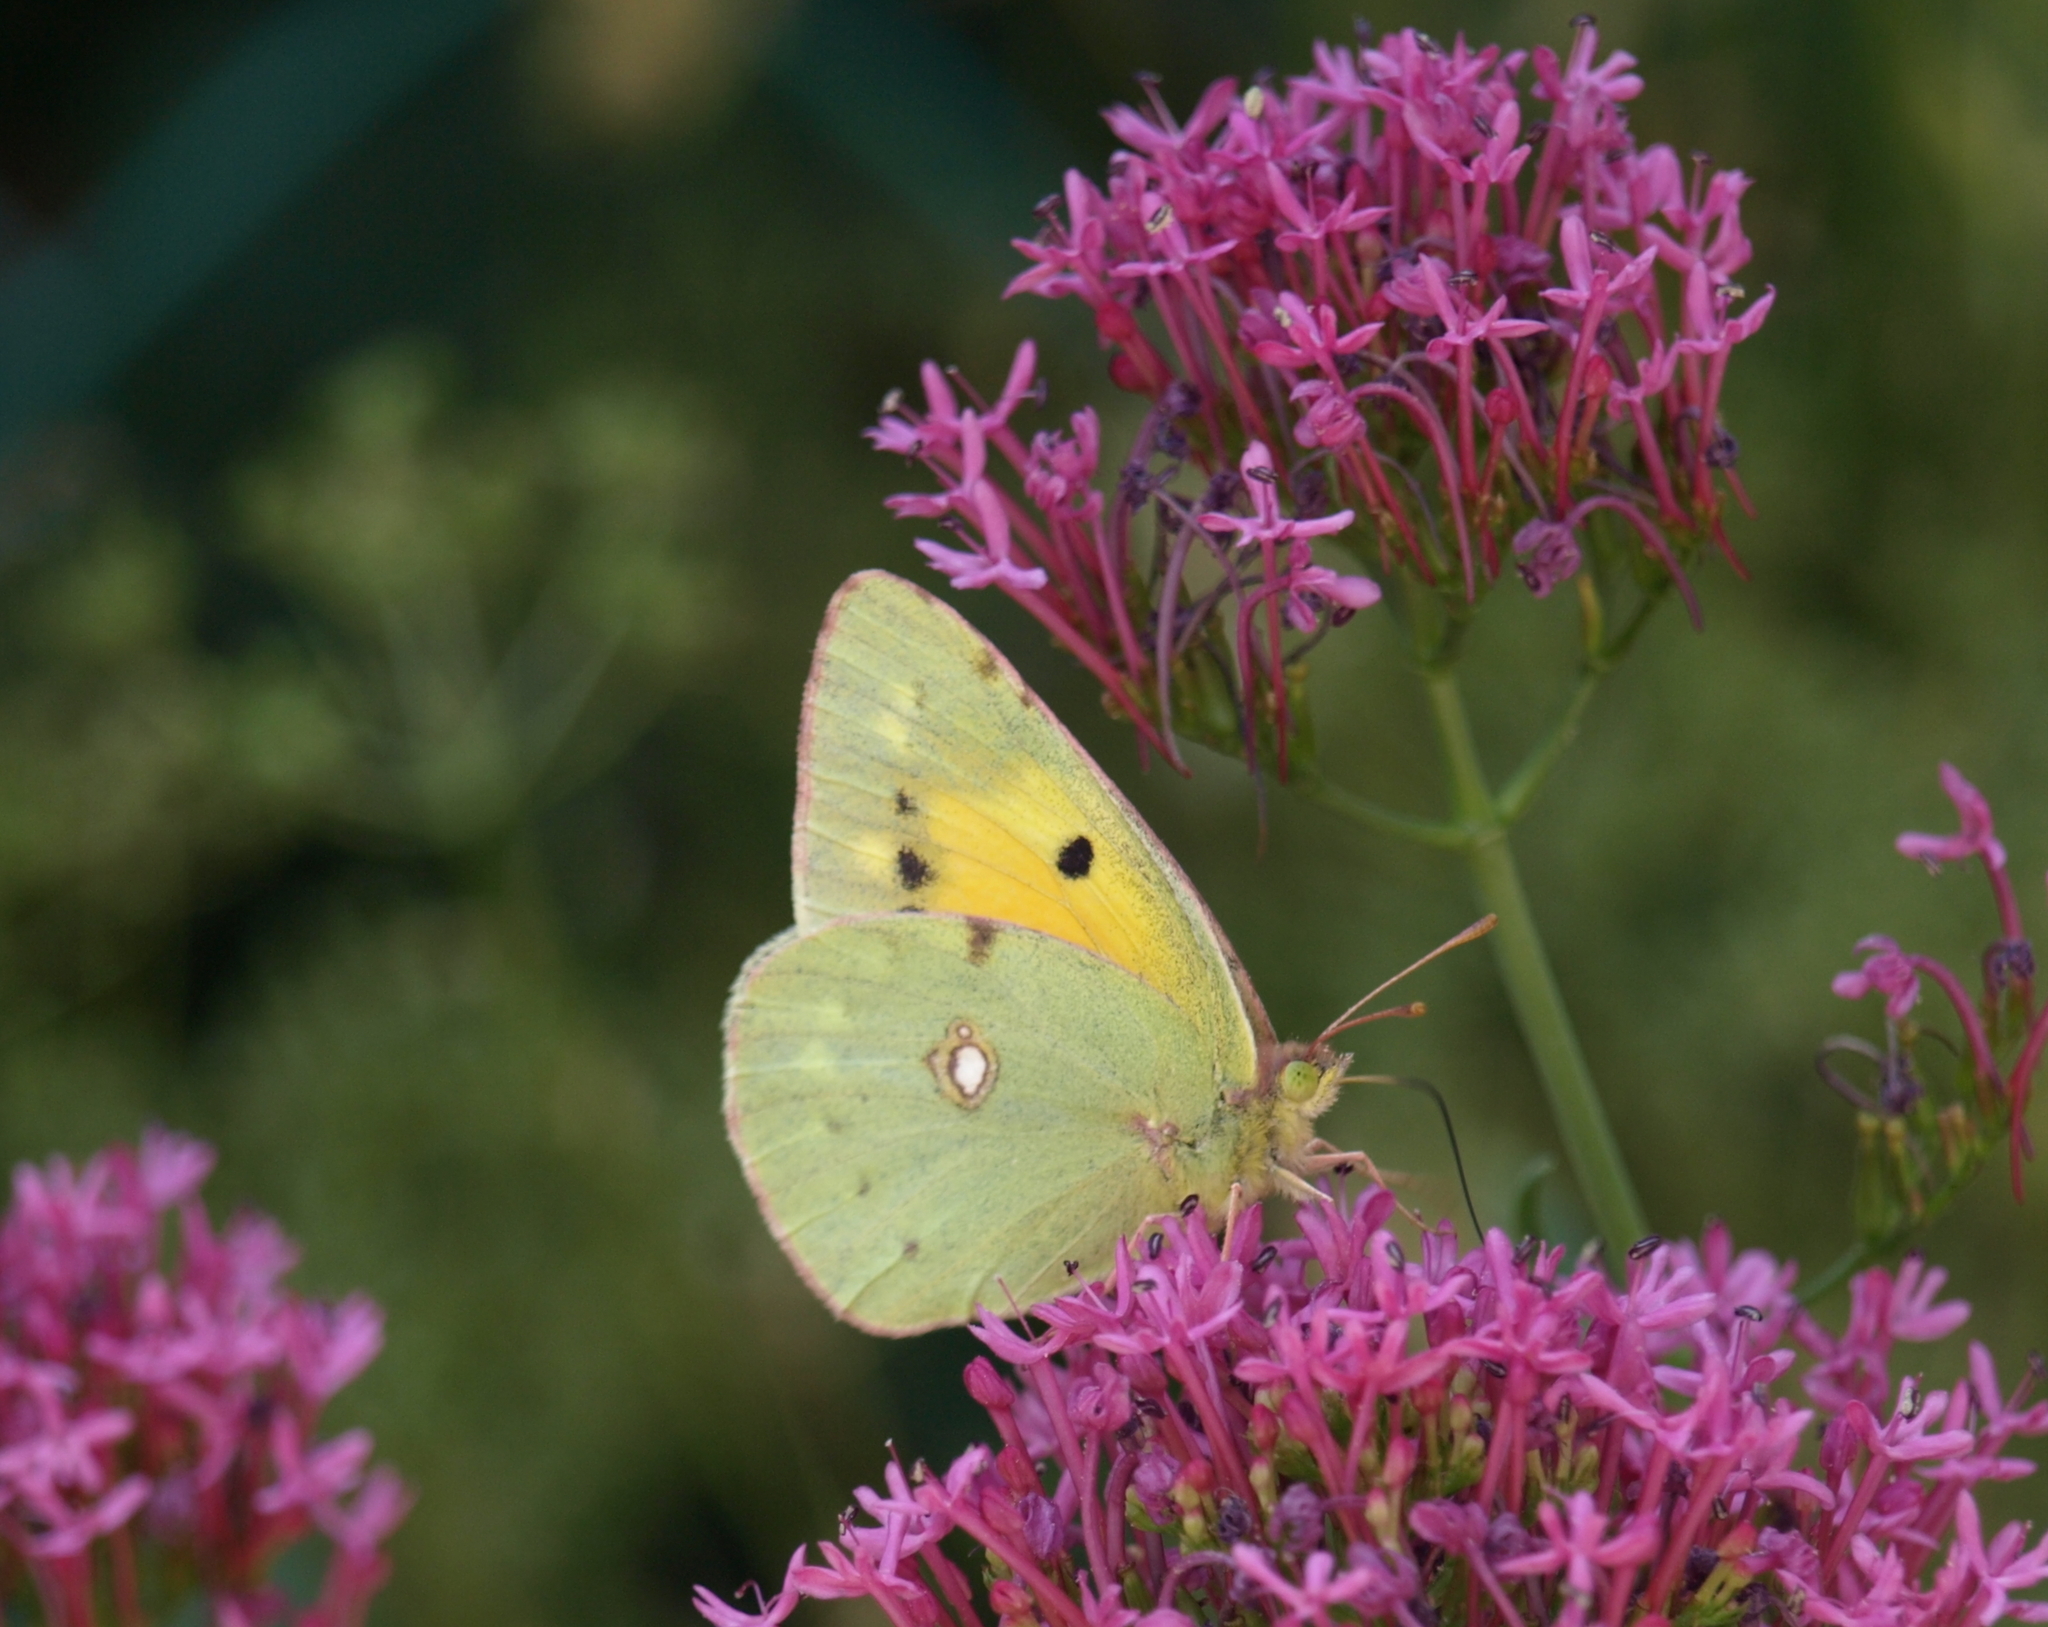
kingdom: Animalia
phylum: Arthropoda
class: Insecta
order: Lepidoptera
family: Pieridae
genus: Colias
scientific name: Colias croceus
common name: Clouded yellow
